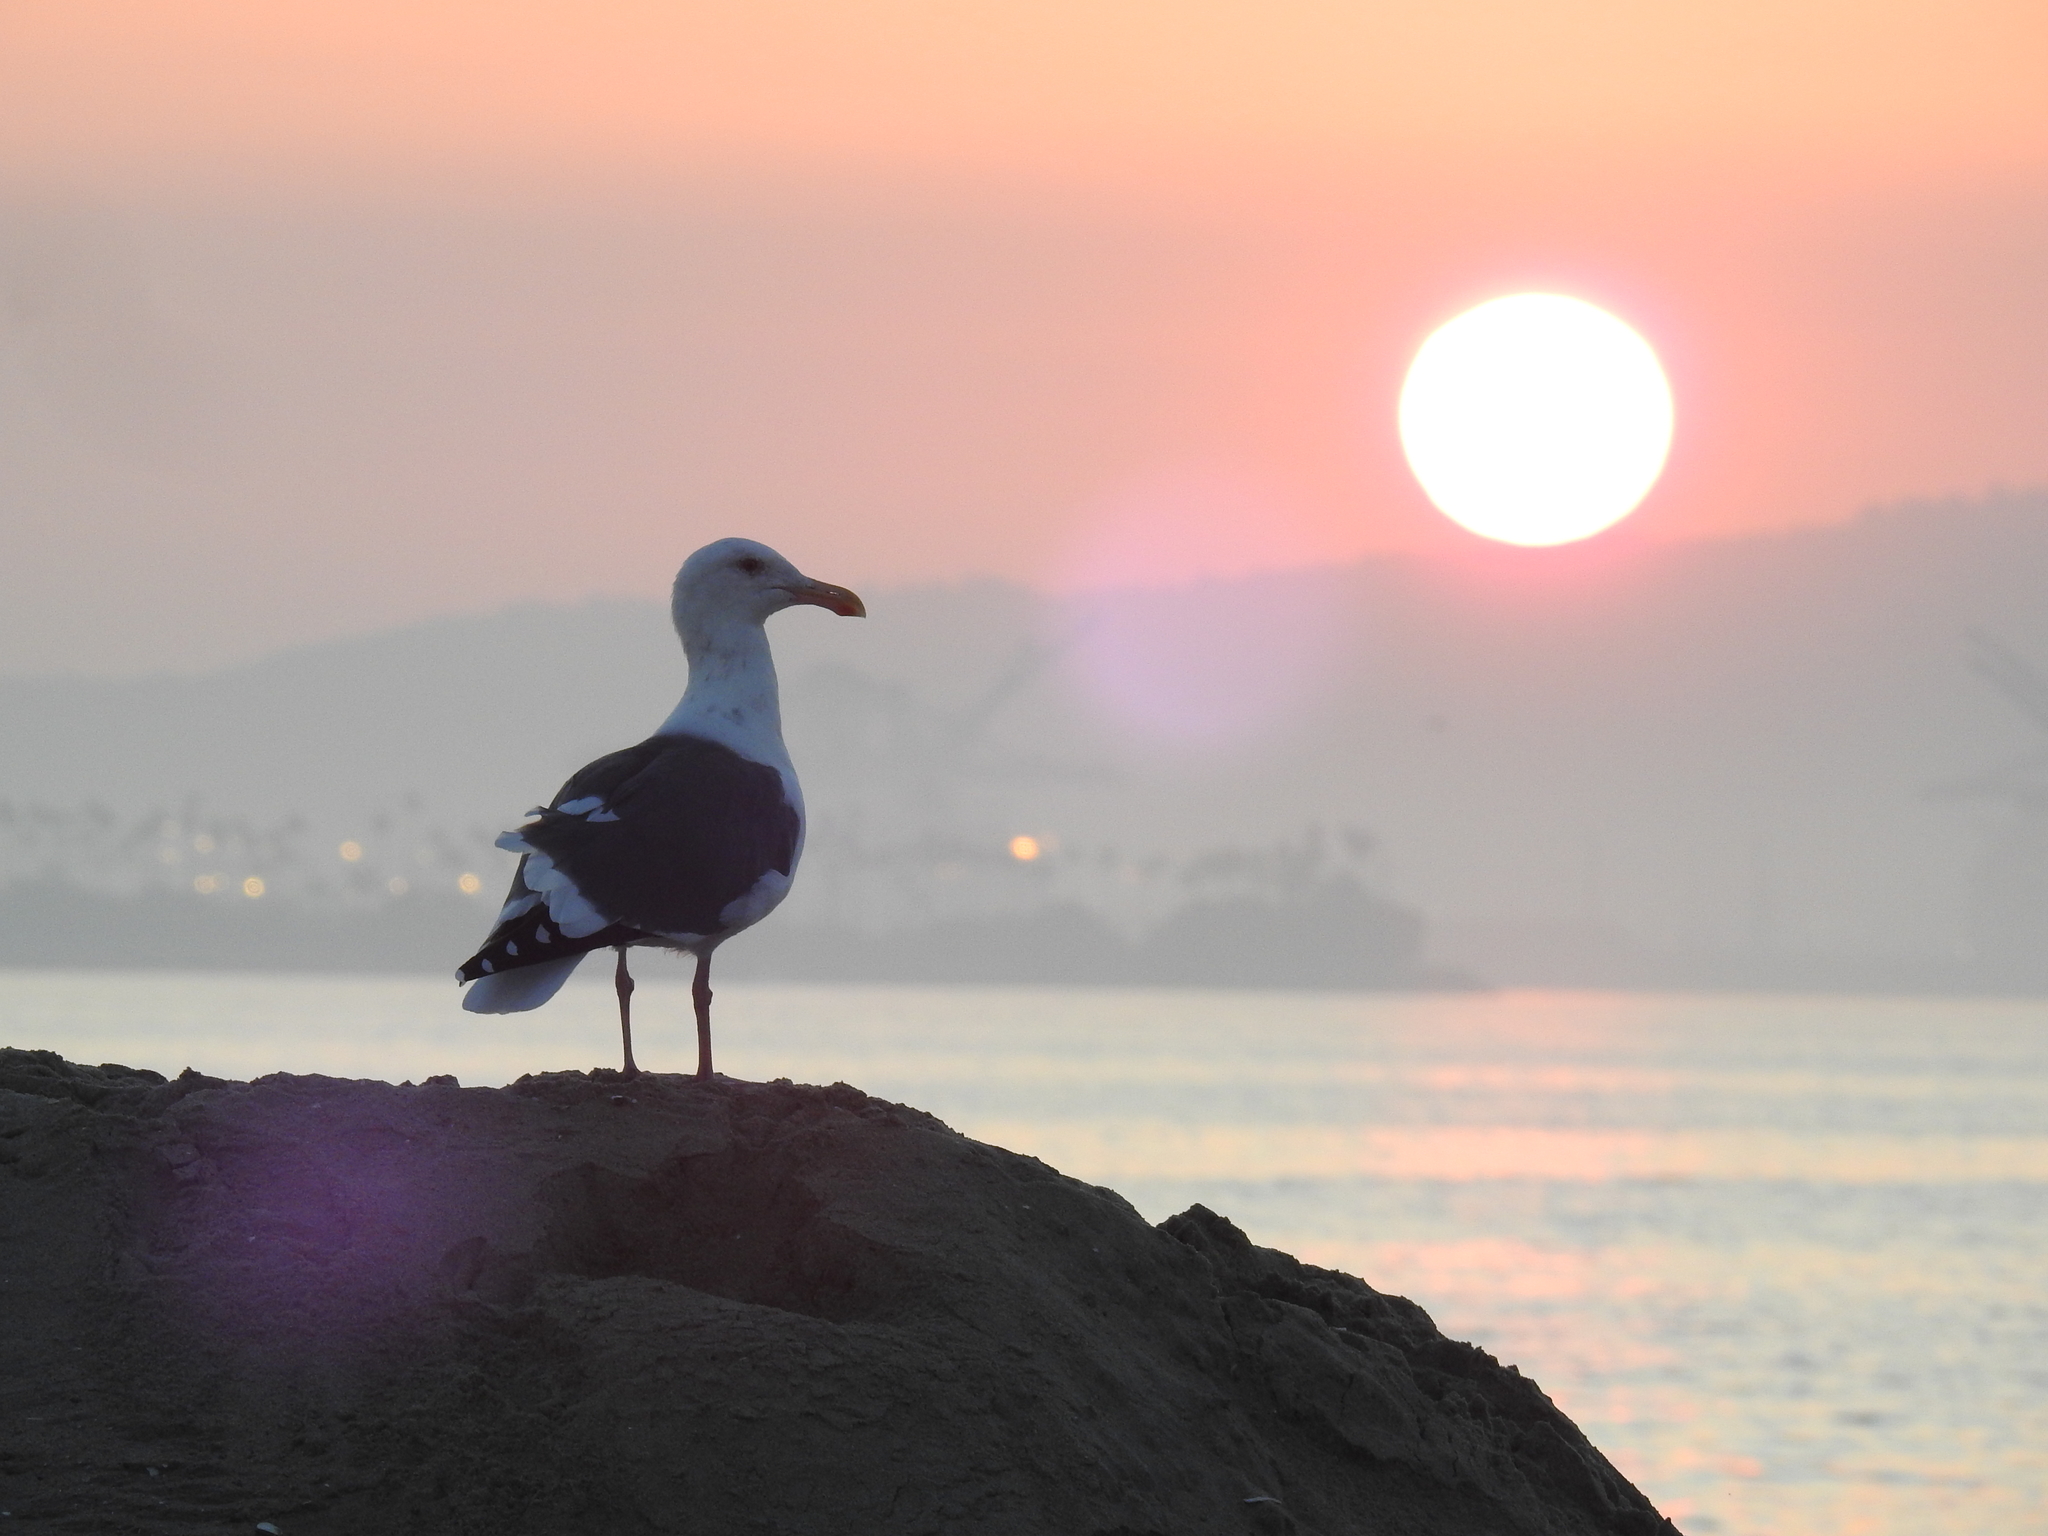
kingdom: Animalia
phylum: Chordata
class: Aves
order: Charadriiformes
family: Laridae
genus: Larus
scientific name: Larus occidentalis
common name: Western gull
